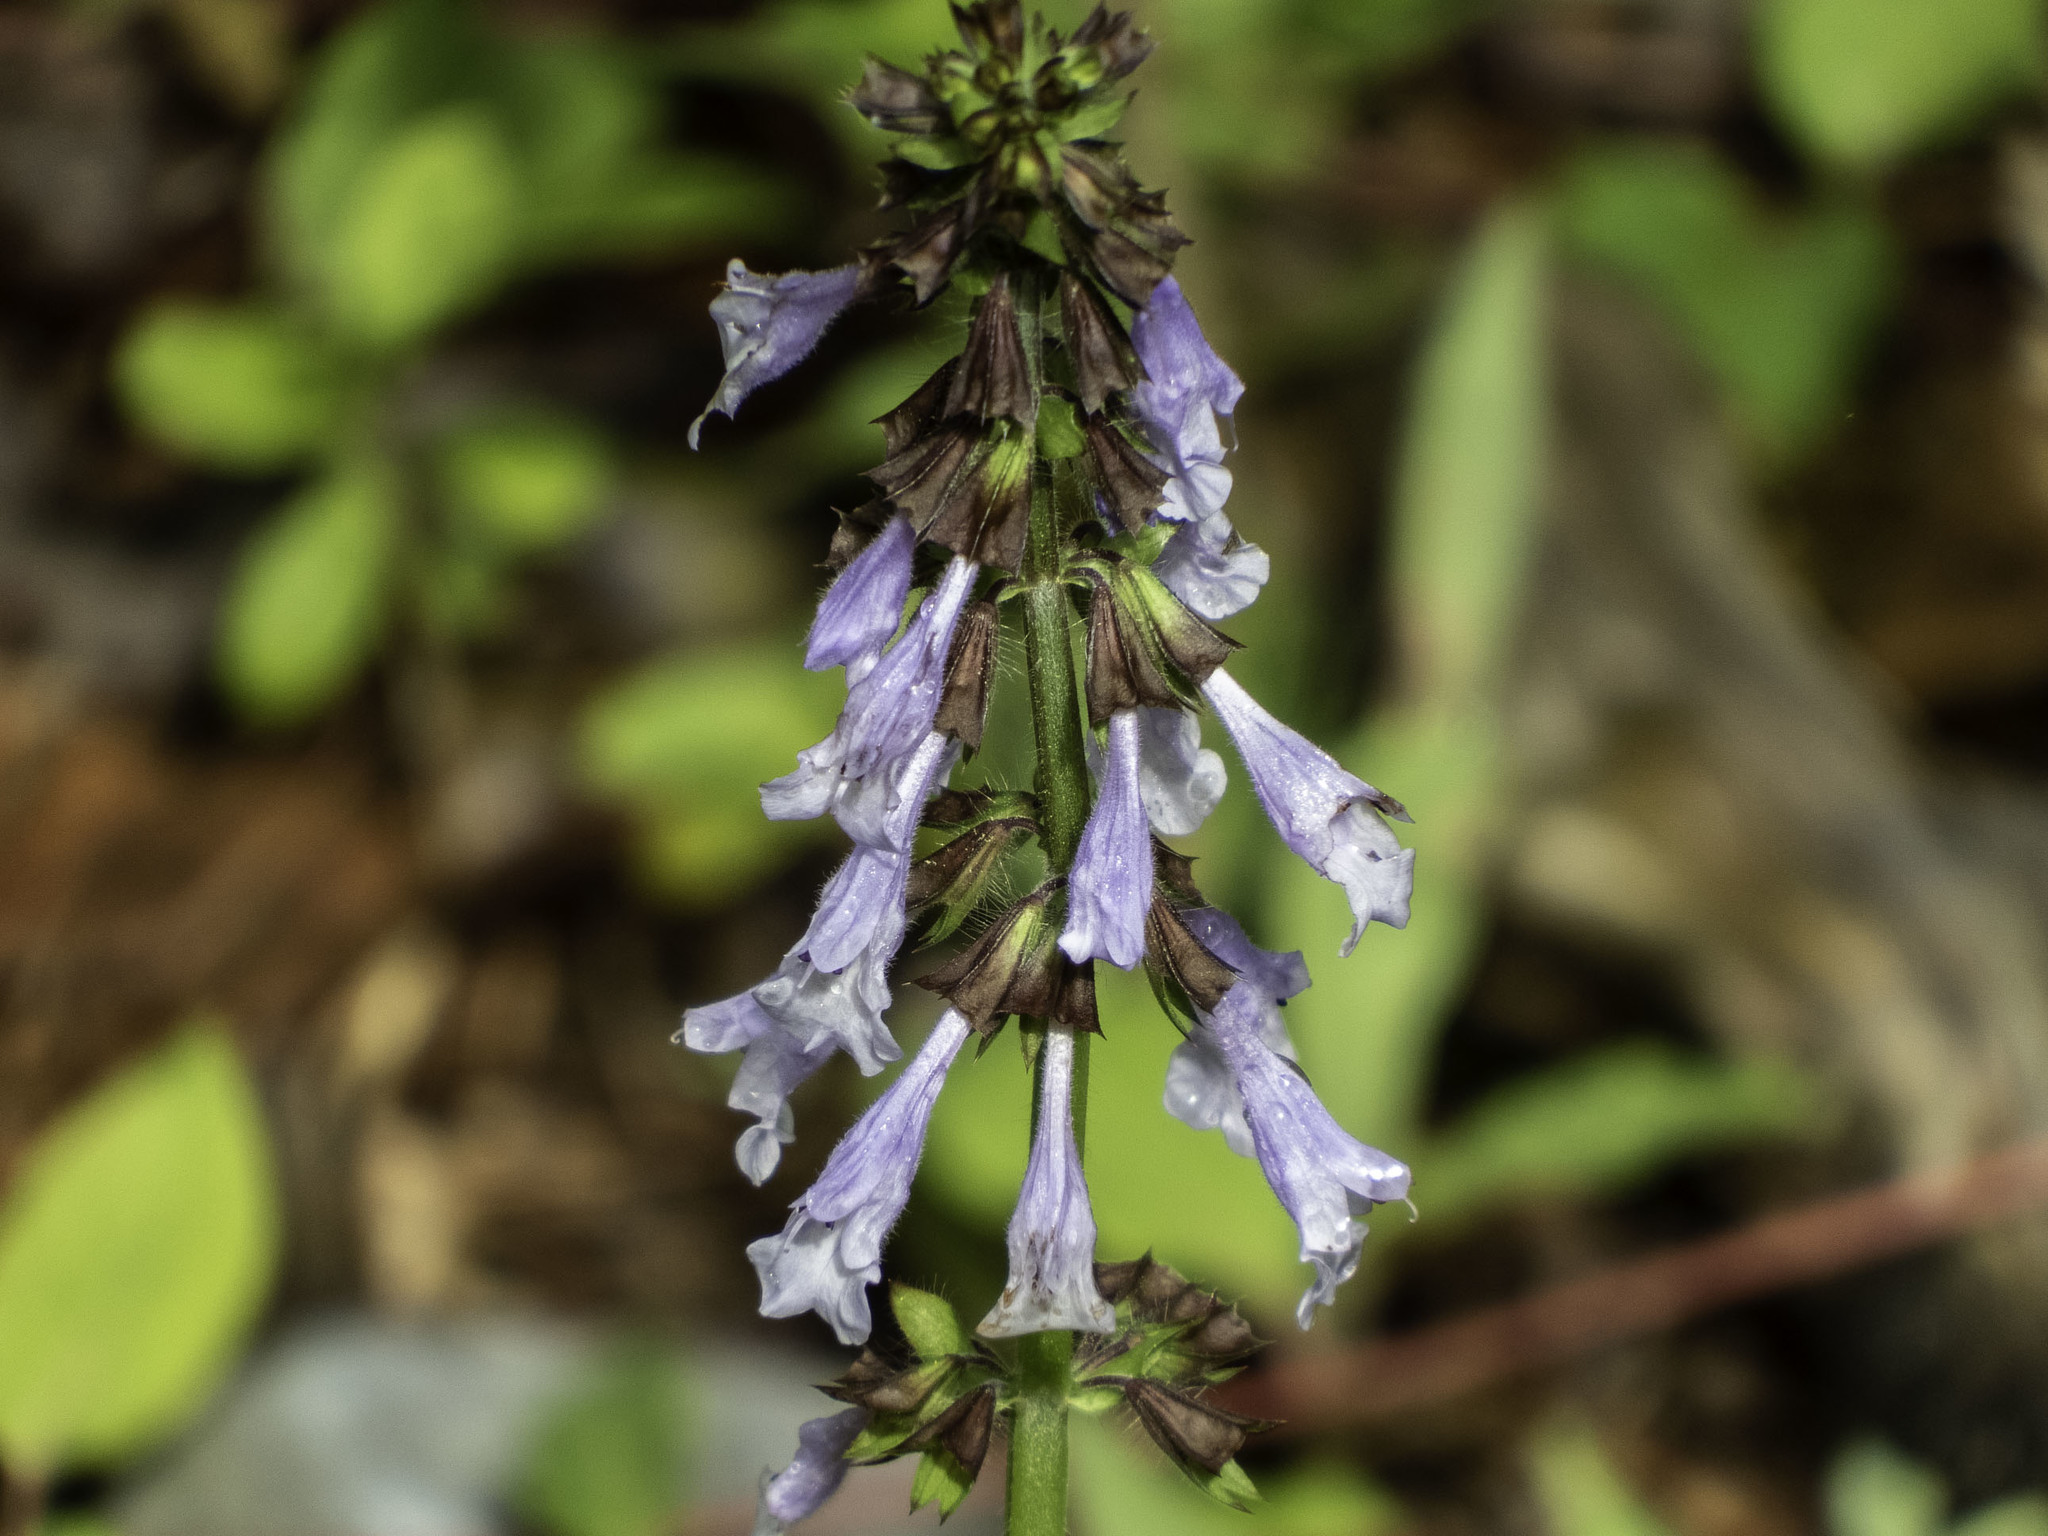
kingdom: Plantae
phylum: Tracheophyta
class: Magnoliopsida
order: Lamiales
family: Lamiaceae
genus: Salvia
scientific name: Salvia lyrata
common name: Cancerweed
